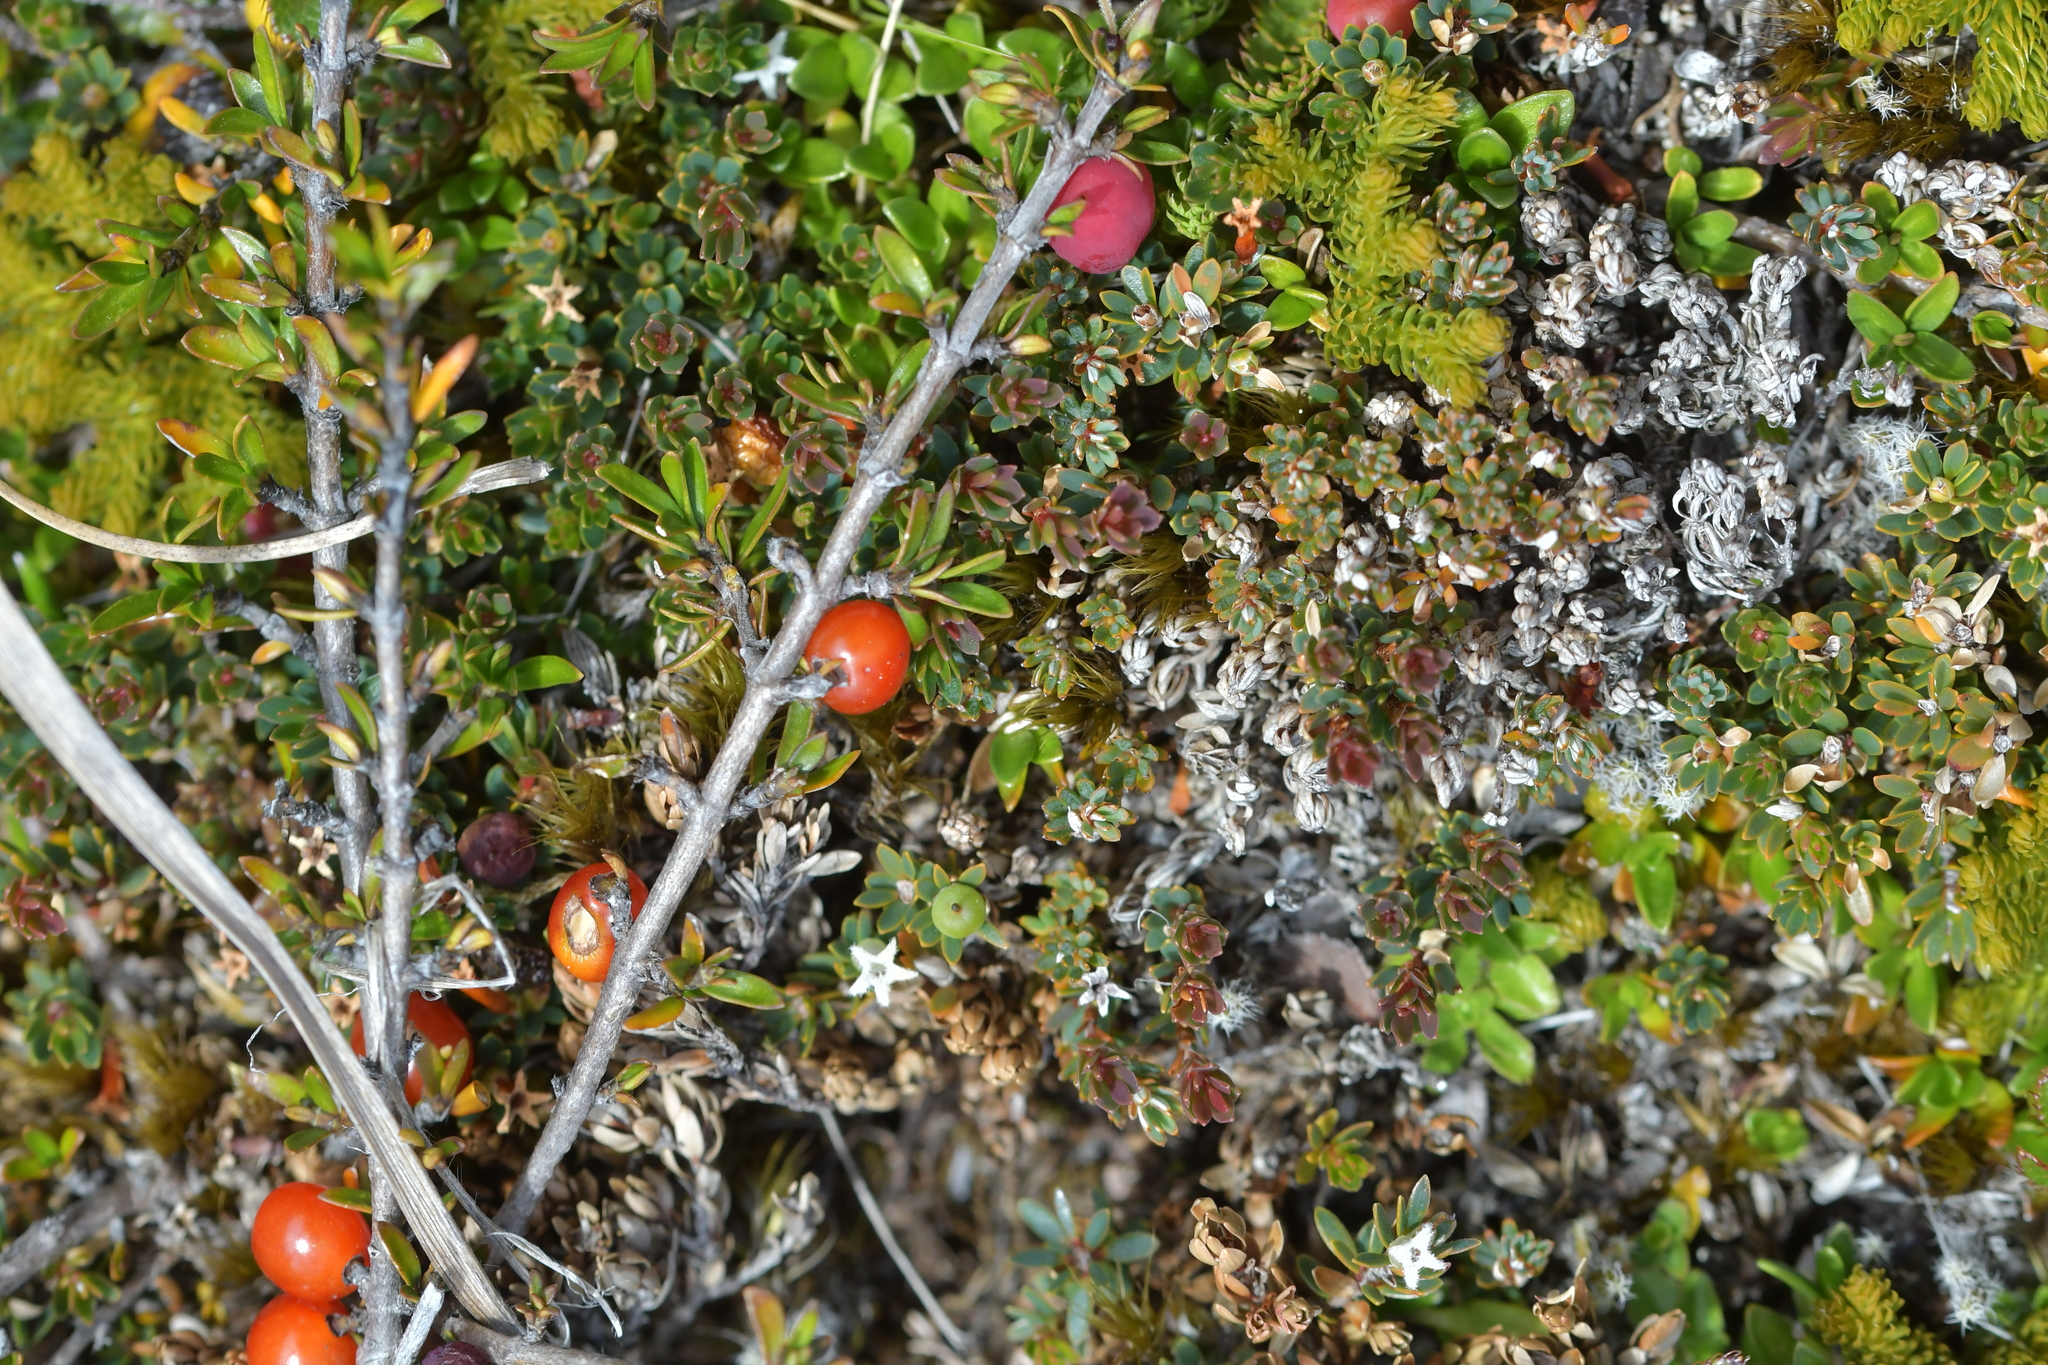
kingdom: Plantae
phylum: Tracheophyta
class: Magnoliopsida
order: Gentianales
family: Rubiaceae
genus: Coprosma
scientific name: Coprosma cheesemanii
